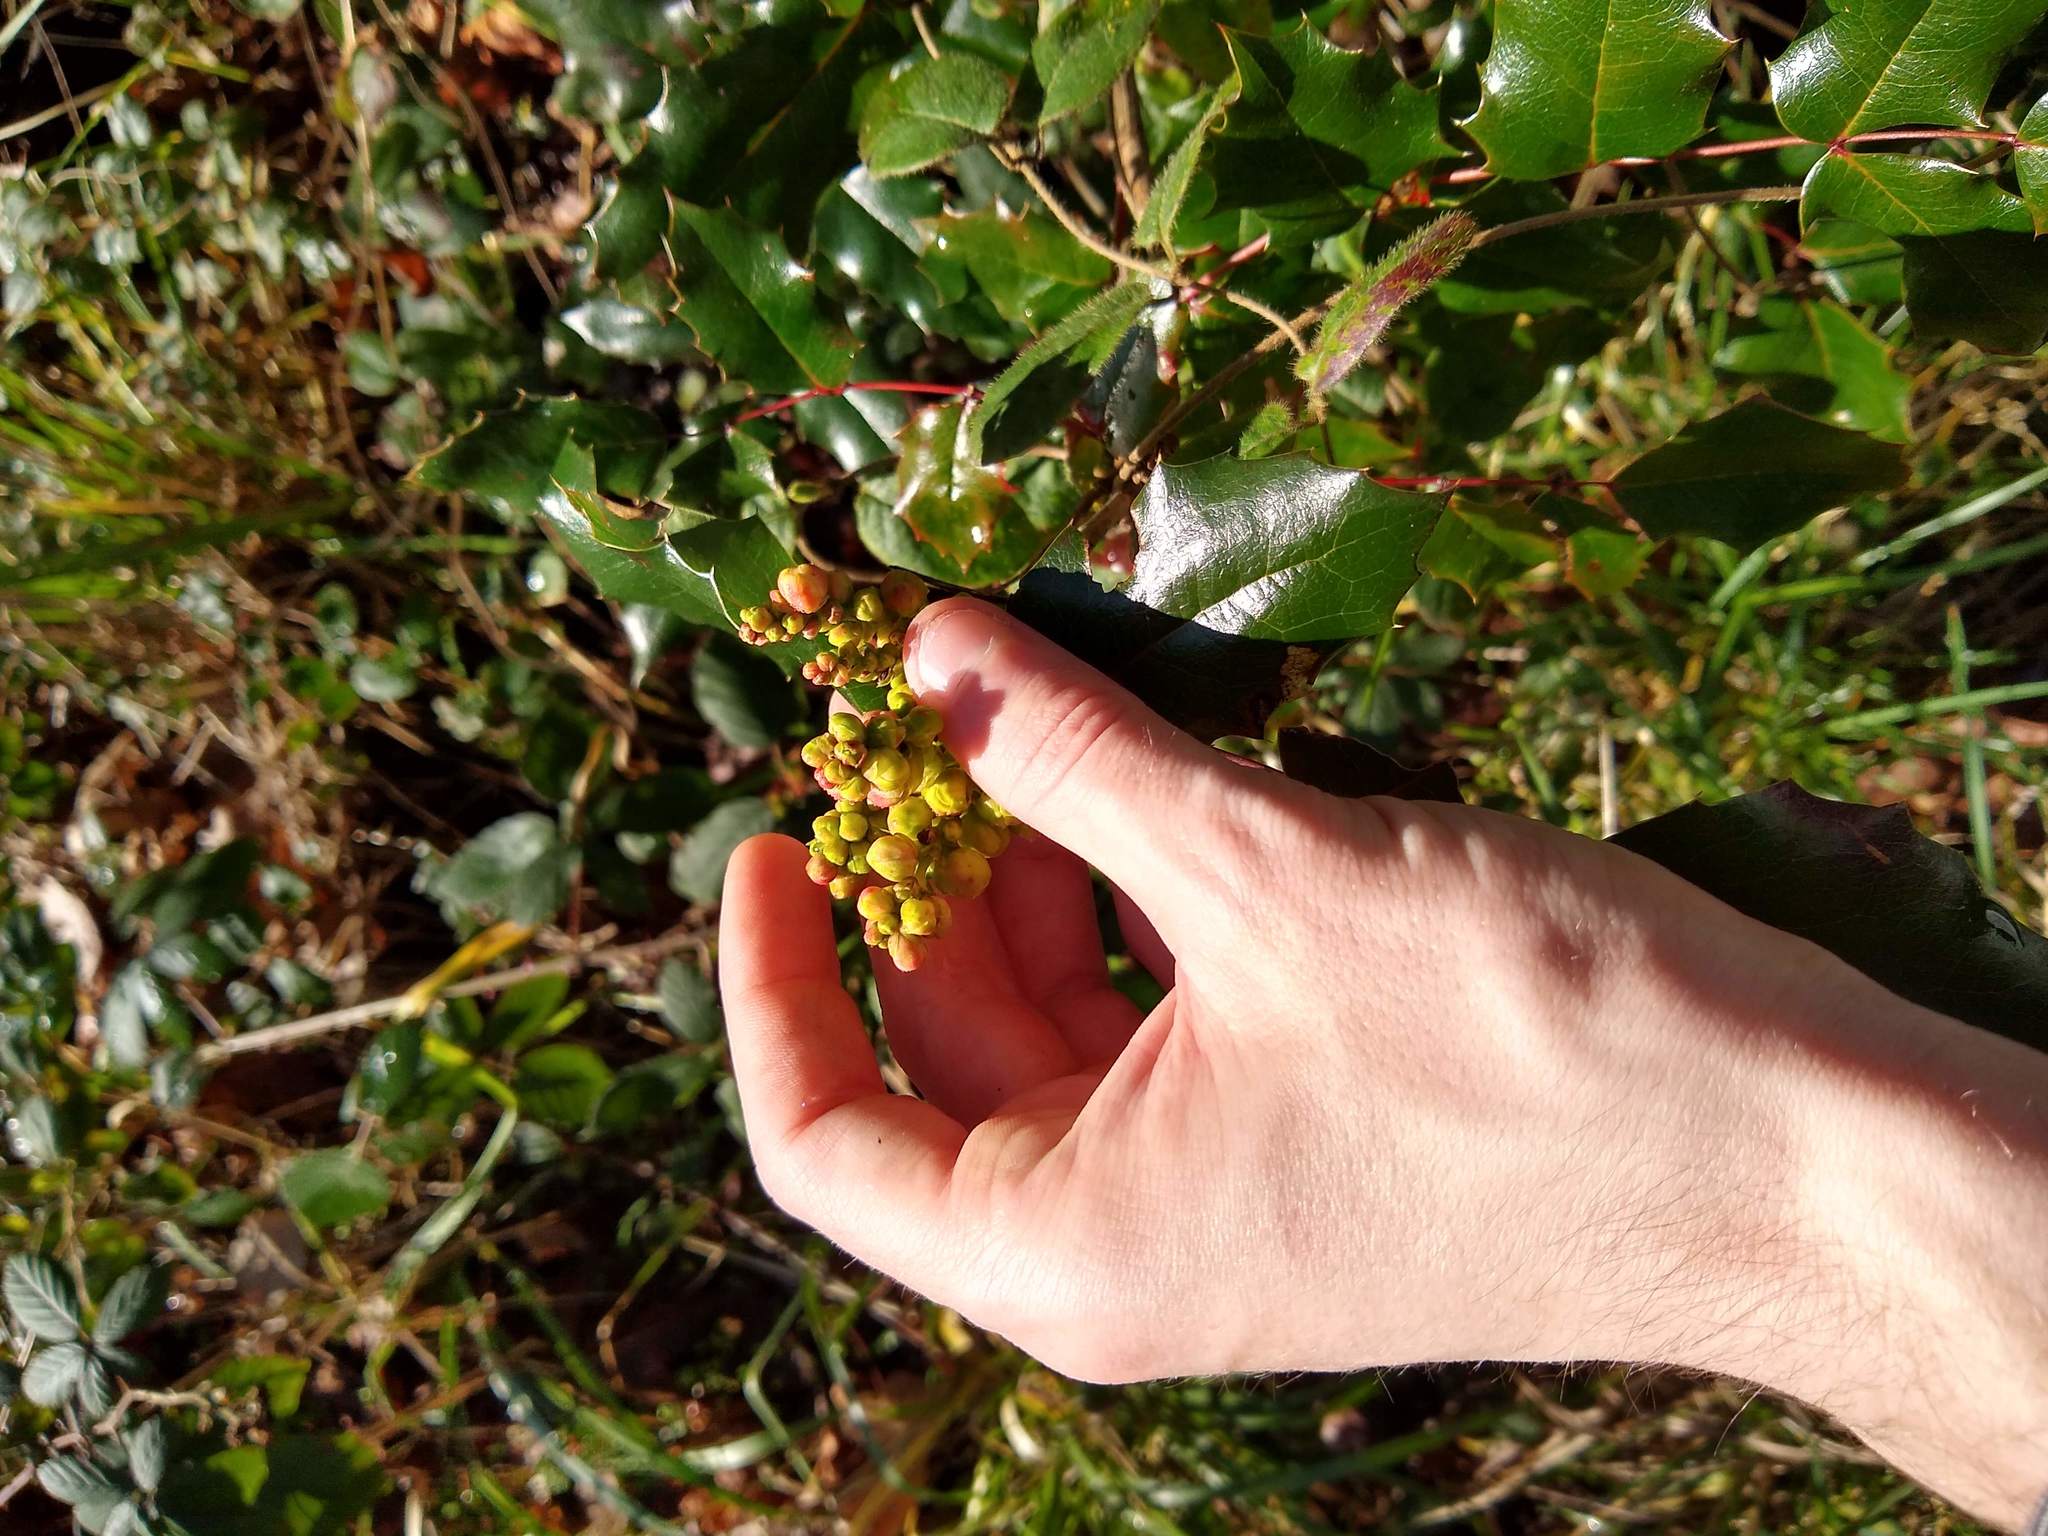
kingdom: Plantae
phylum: Tracheophyta
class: Magnoliopsida
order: Ranunculales
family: Berberidaceae
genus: Mahonia
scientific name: Mahonia aquifolium
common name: Oregon-grape
